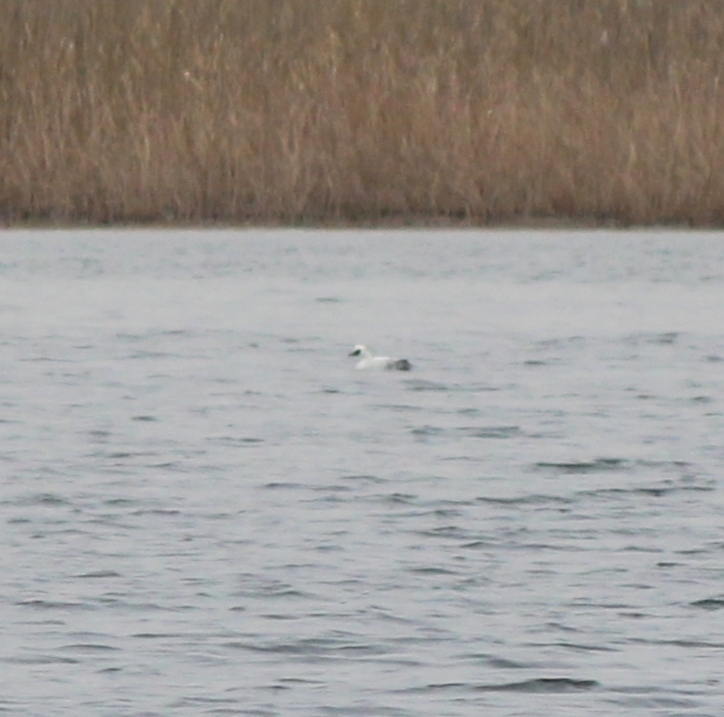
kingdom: Animalia
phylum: Chordata
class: Aves
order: Anseriformes
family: Anatidae
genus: Mergellus
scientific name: Mergellus albellus
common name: Smew
